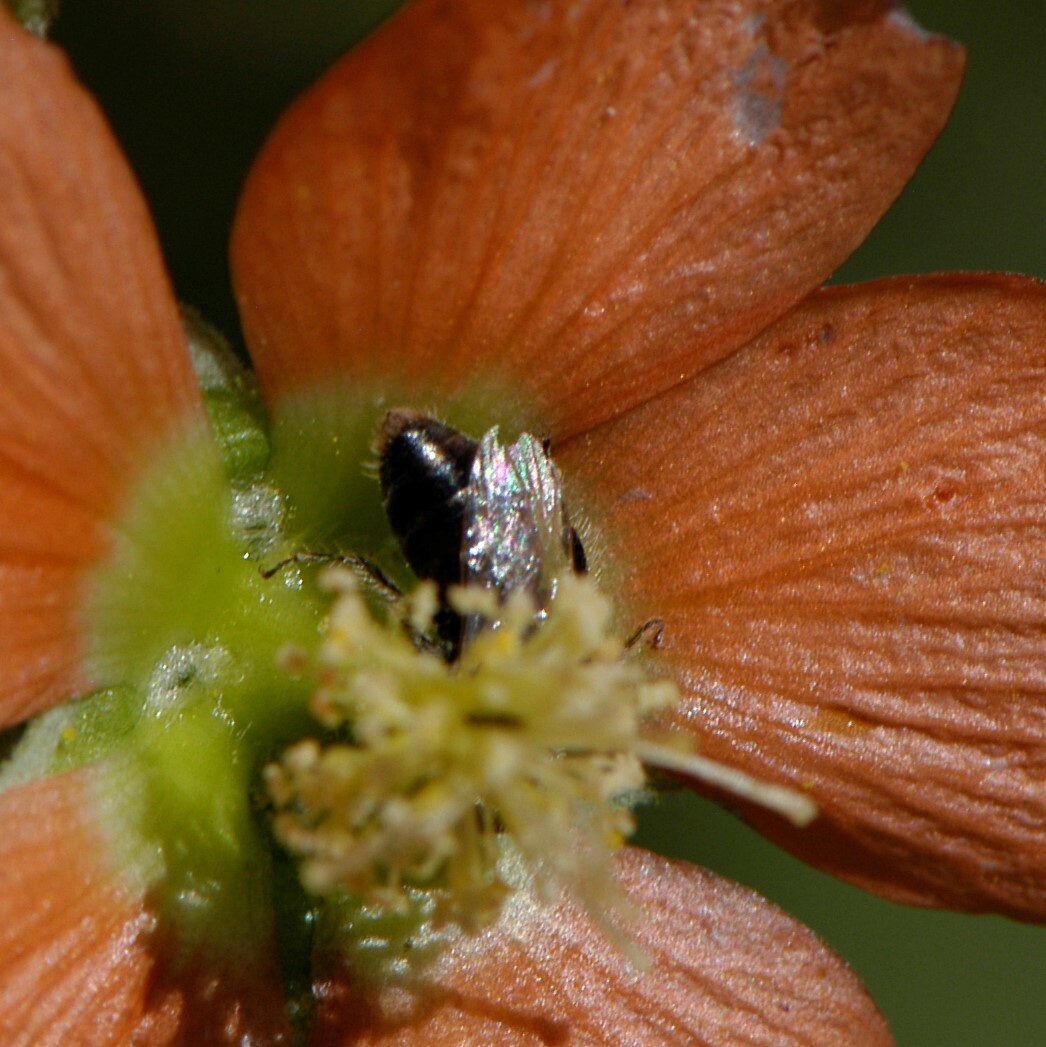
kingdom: Animalia
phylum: Arthropoda
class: Insecta
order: Hymenoptera
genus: Macroteropsis
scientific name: Macroteropsis
